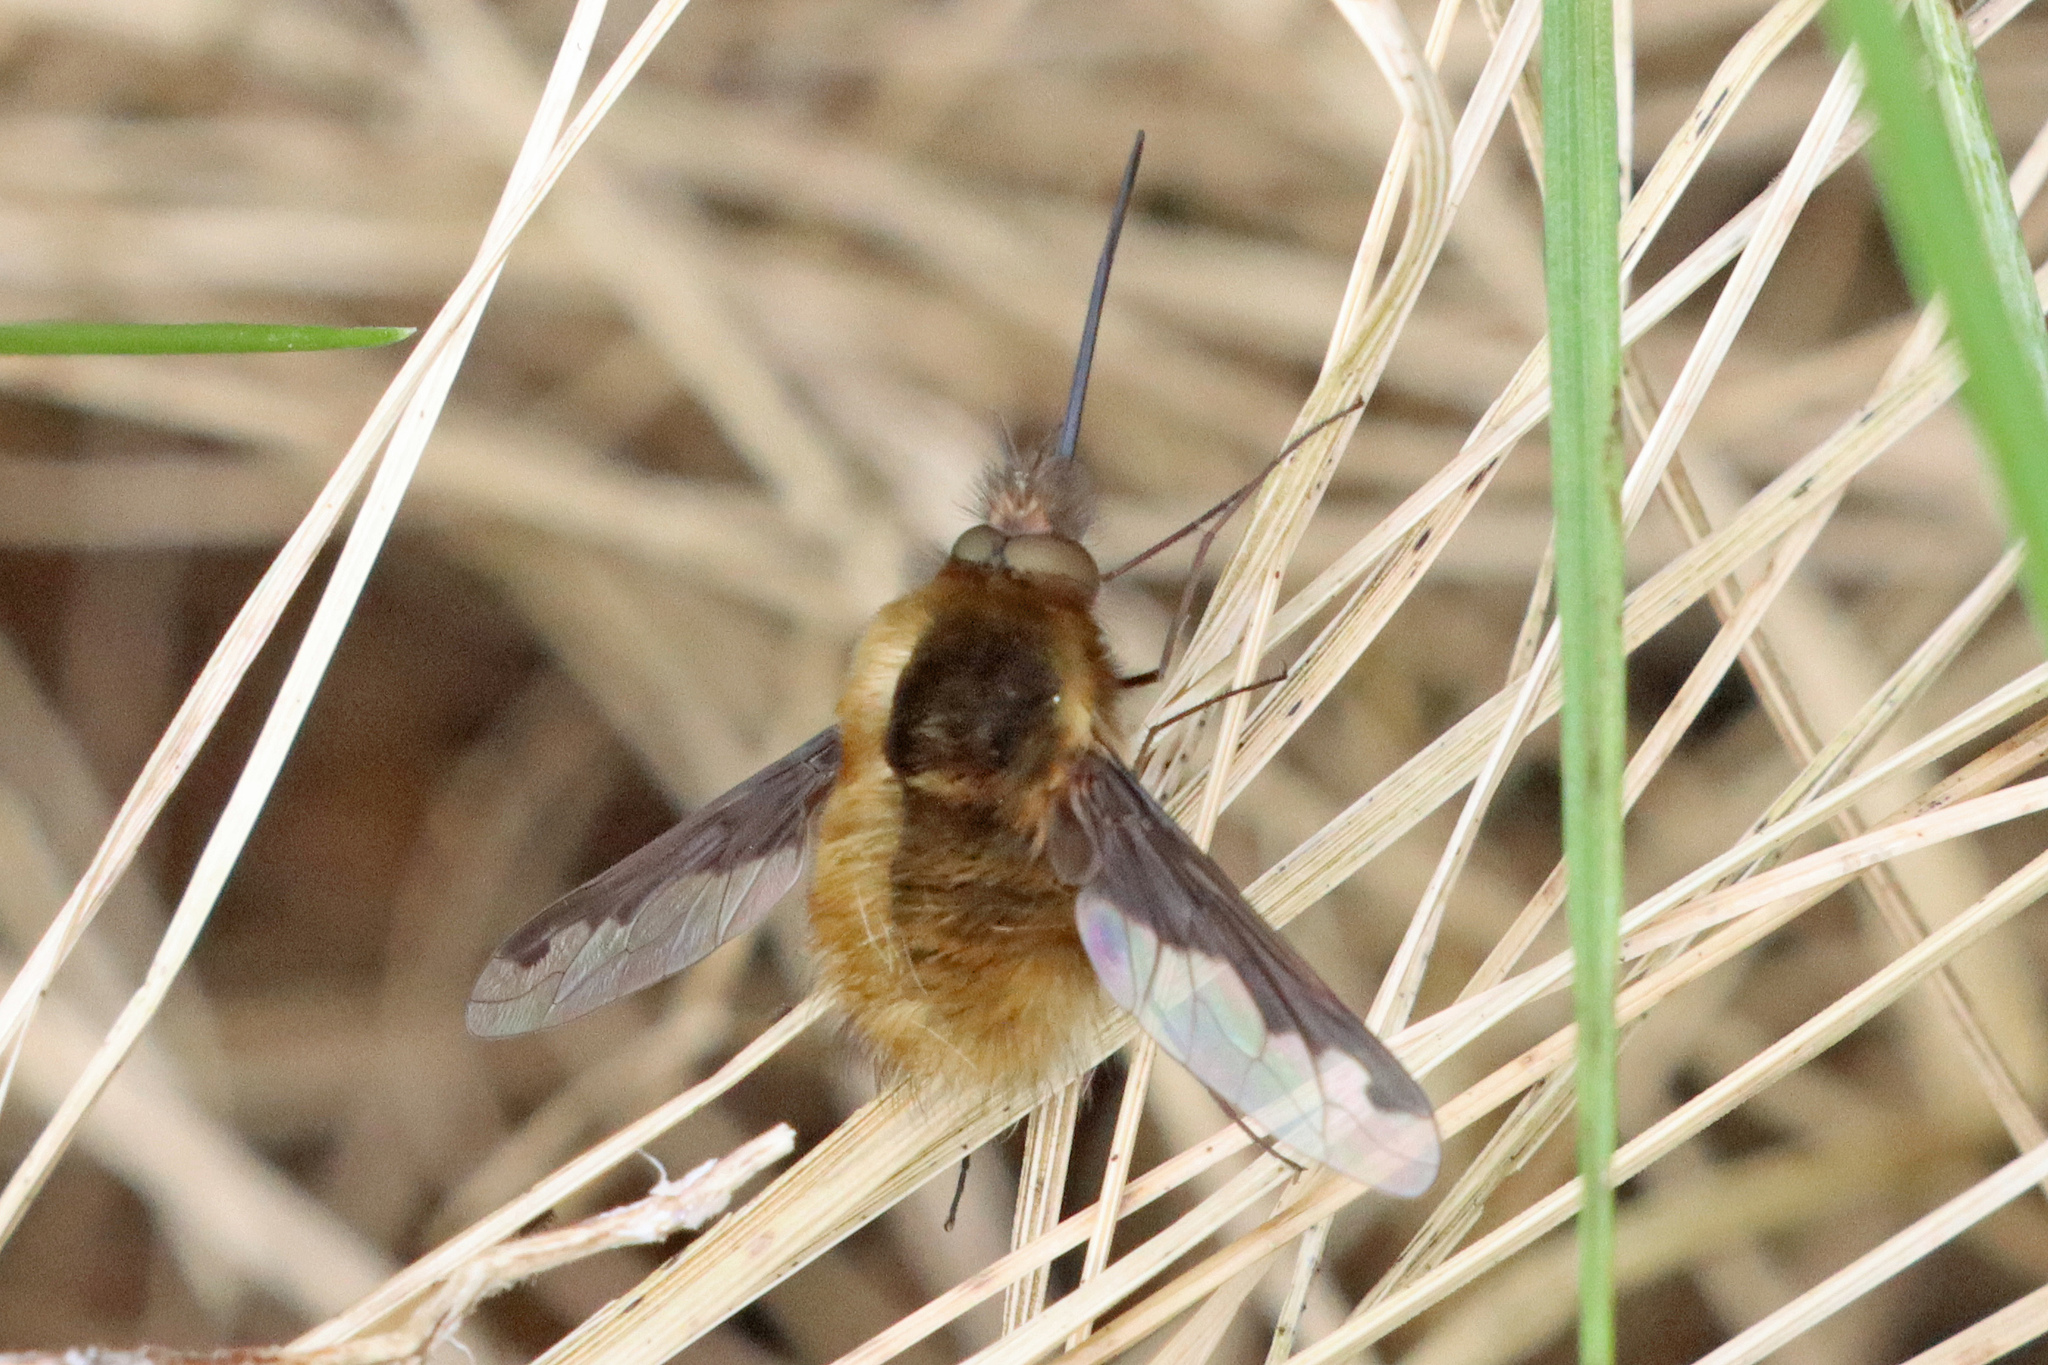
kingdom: Animalia
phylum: Arthropoda
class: Insecta
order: Diptera
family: Bombyliidae
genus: Bombylius
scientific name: Bombylius major
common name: Bee fly
